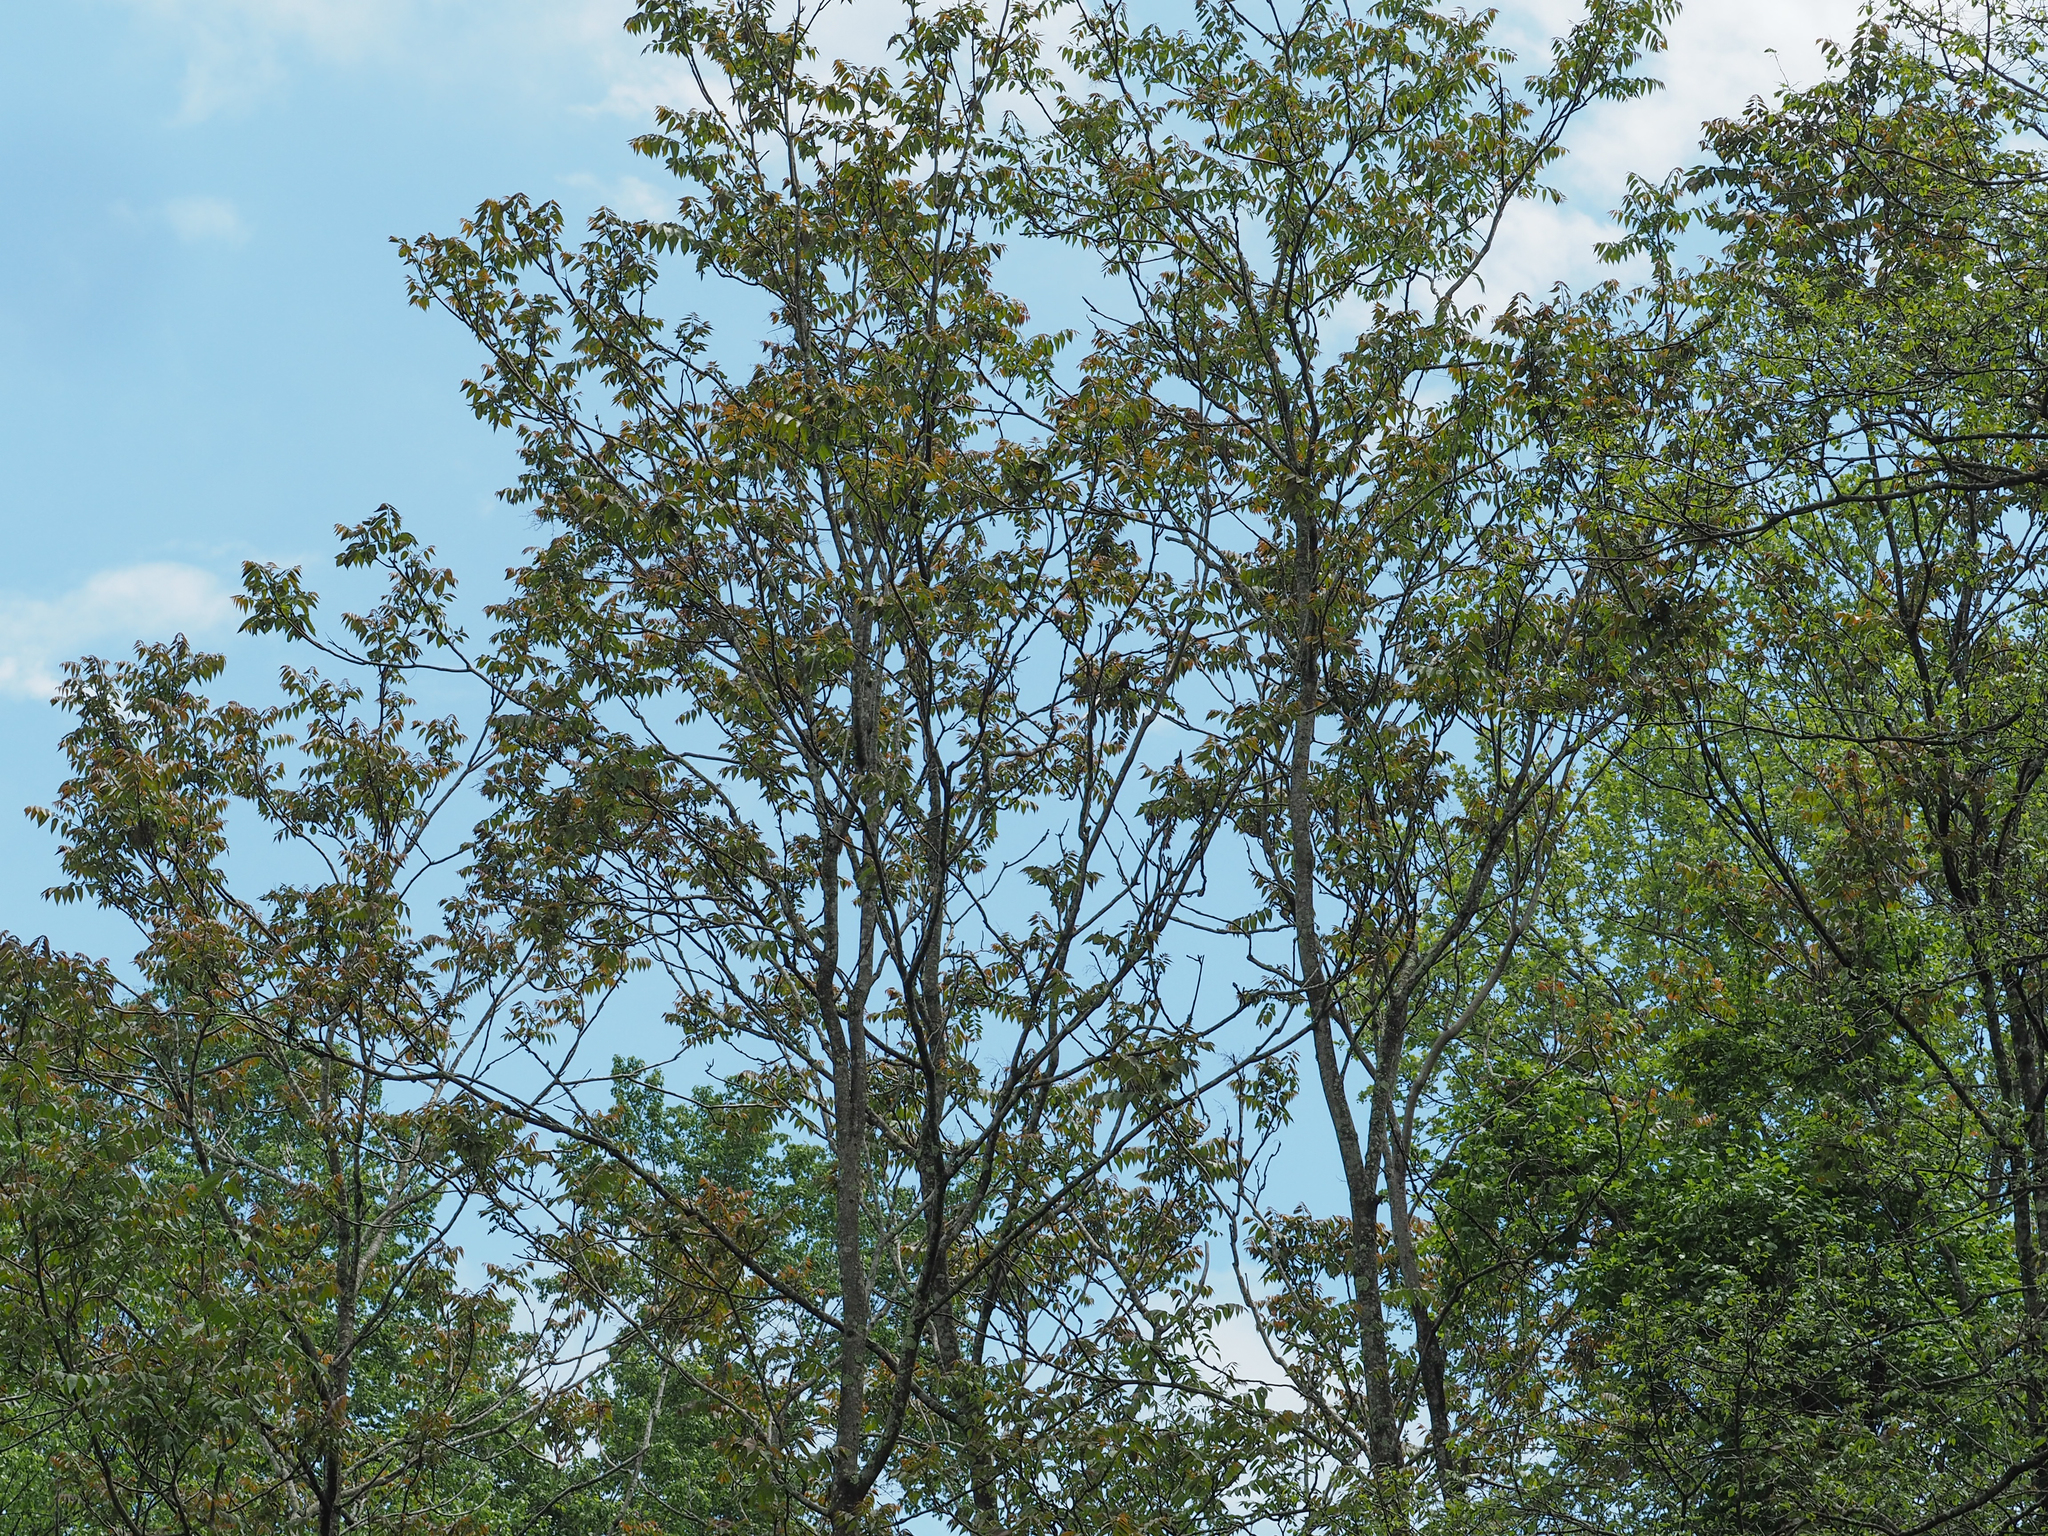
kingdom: Plantae
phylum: Tracheophyta
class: Magnoliopsida
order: Sapindales
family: Simaroubaceae
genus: Ailanthus
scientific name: Ailanthus altissima
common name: Tree-of-heaven
